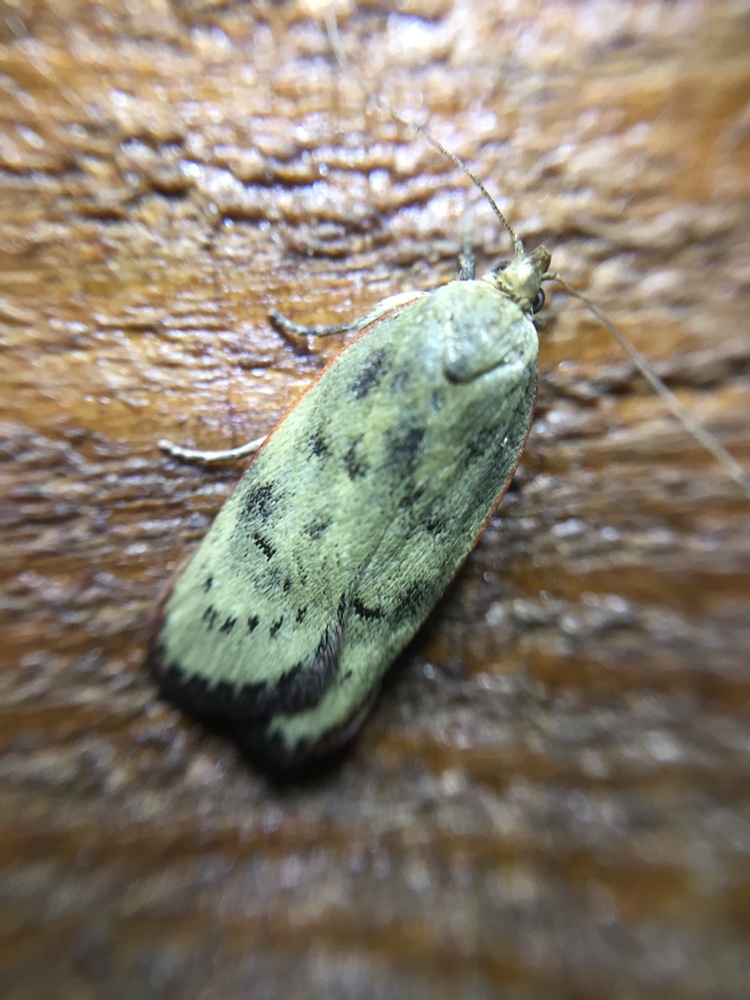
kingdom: Animalia
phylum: Arthropoda
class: Insecta
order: Lepidoptera
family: Depressariidae
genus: Phaeosaces
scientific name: Phaeosaces coarctatella
